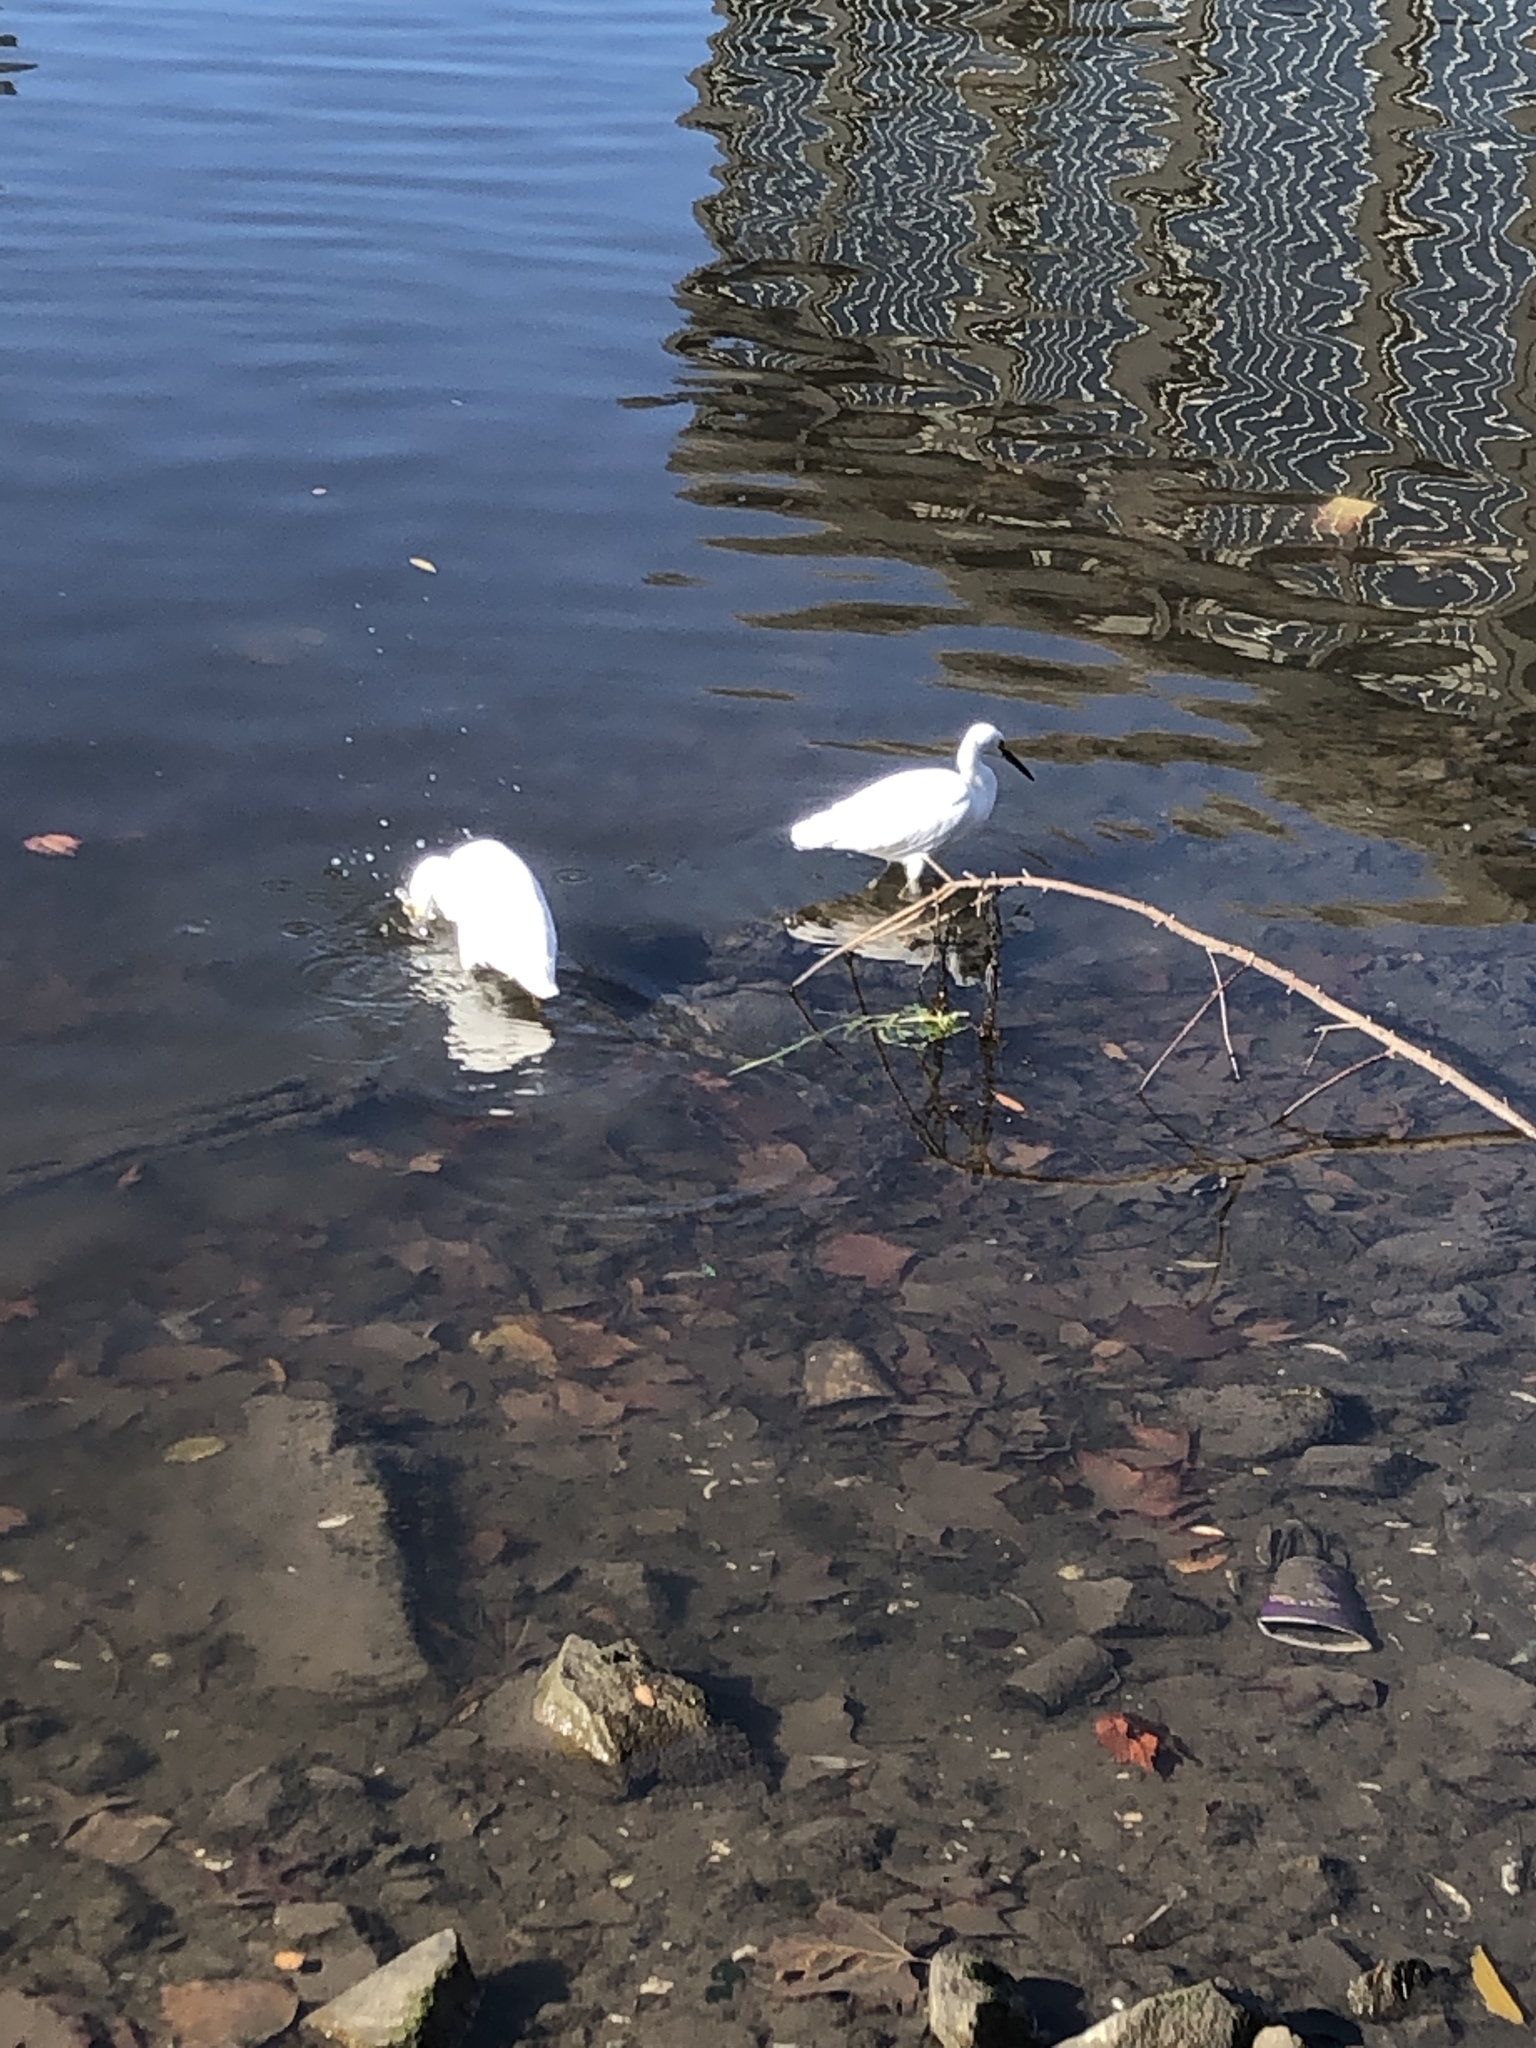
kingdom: Animalia
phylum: Chordata
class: Aves
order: Pelecaniformes
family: Ardeidae
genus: Egretta
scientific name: Egretta thula
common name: Snowy egret
